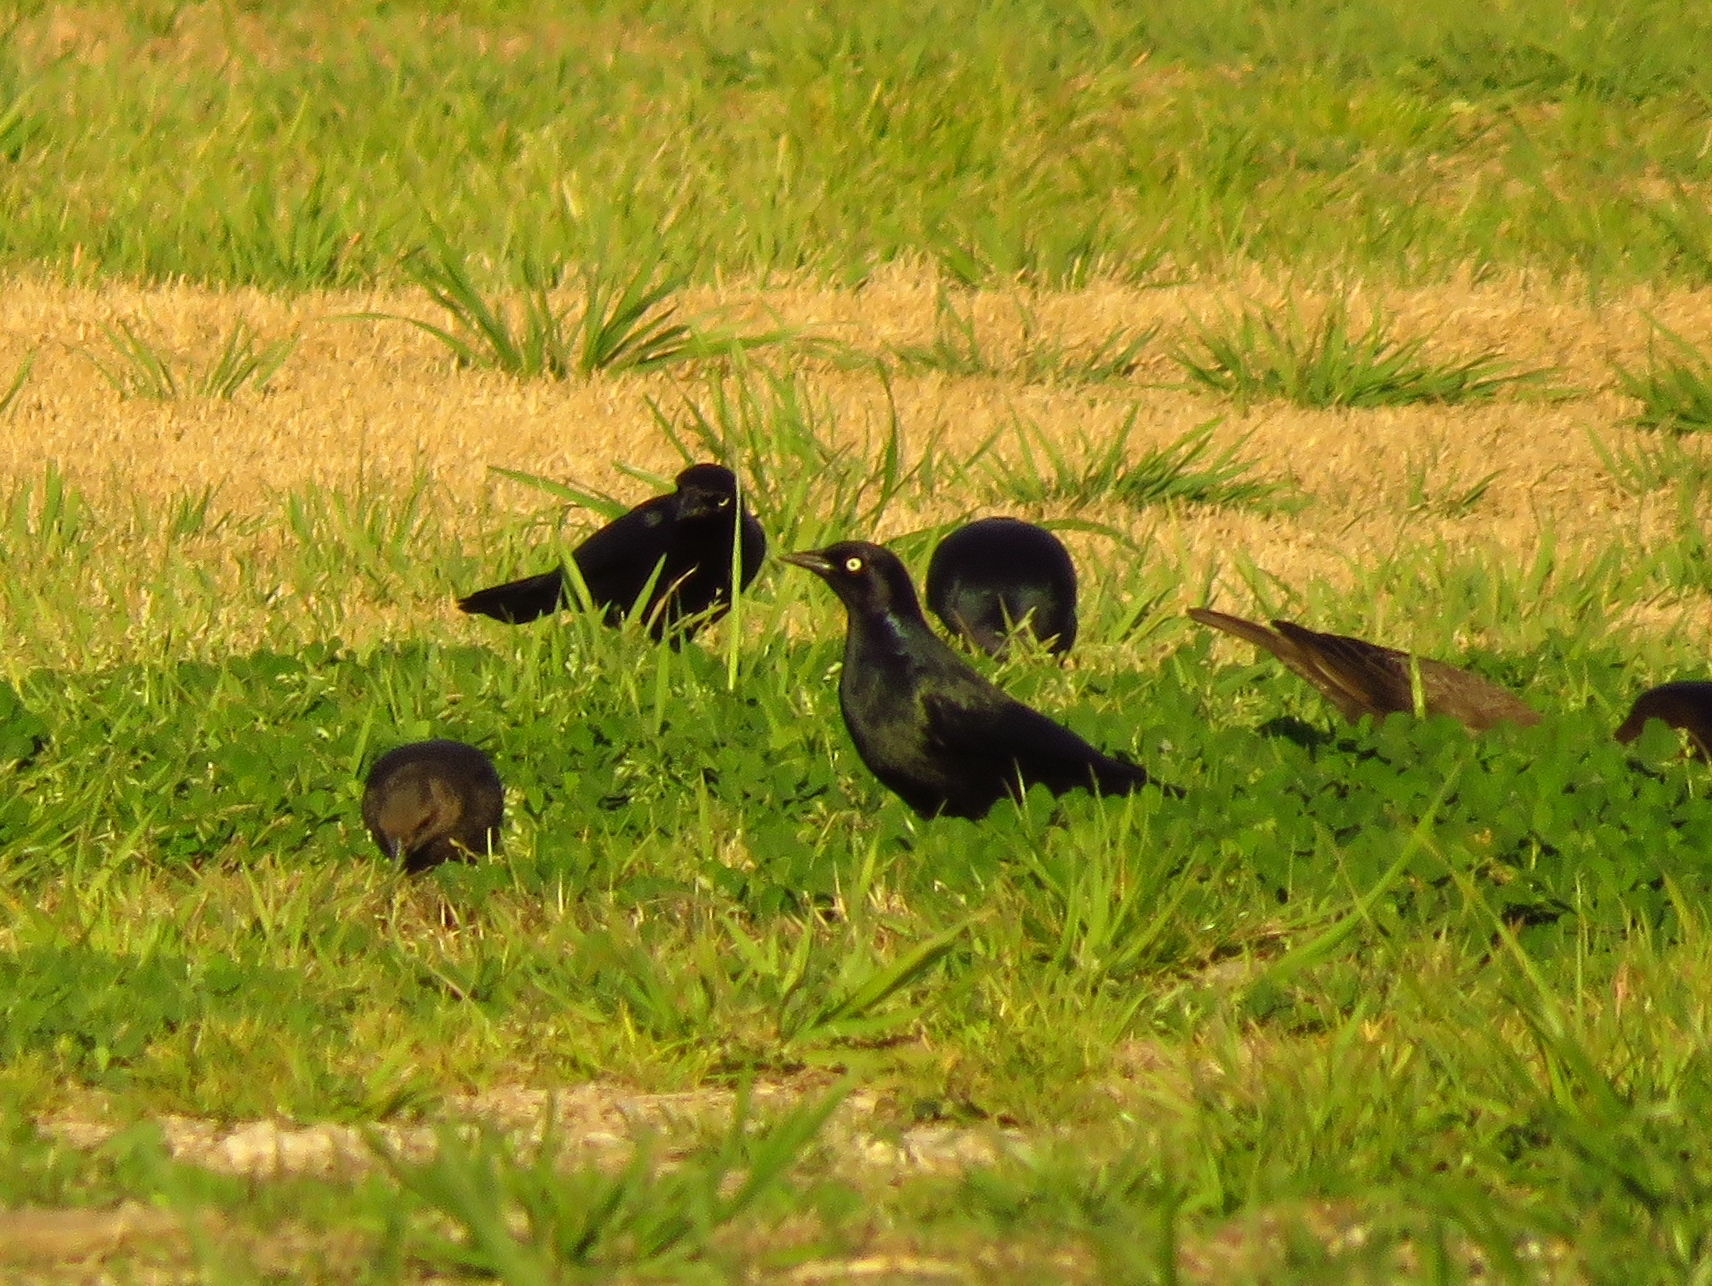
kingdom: Animalia
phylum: Chordata
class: Aves
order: Passeriformes
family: Icteridae
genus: Euphagus
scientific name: Euphagus cyanocephalus
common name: Brewer's blackbird
